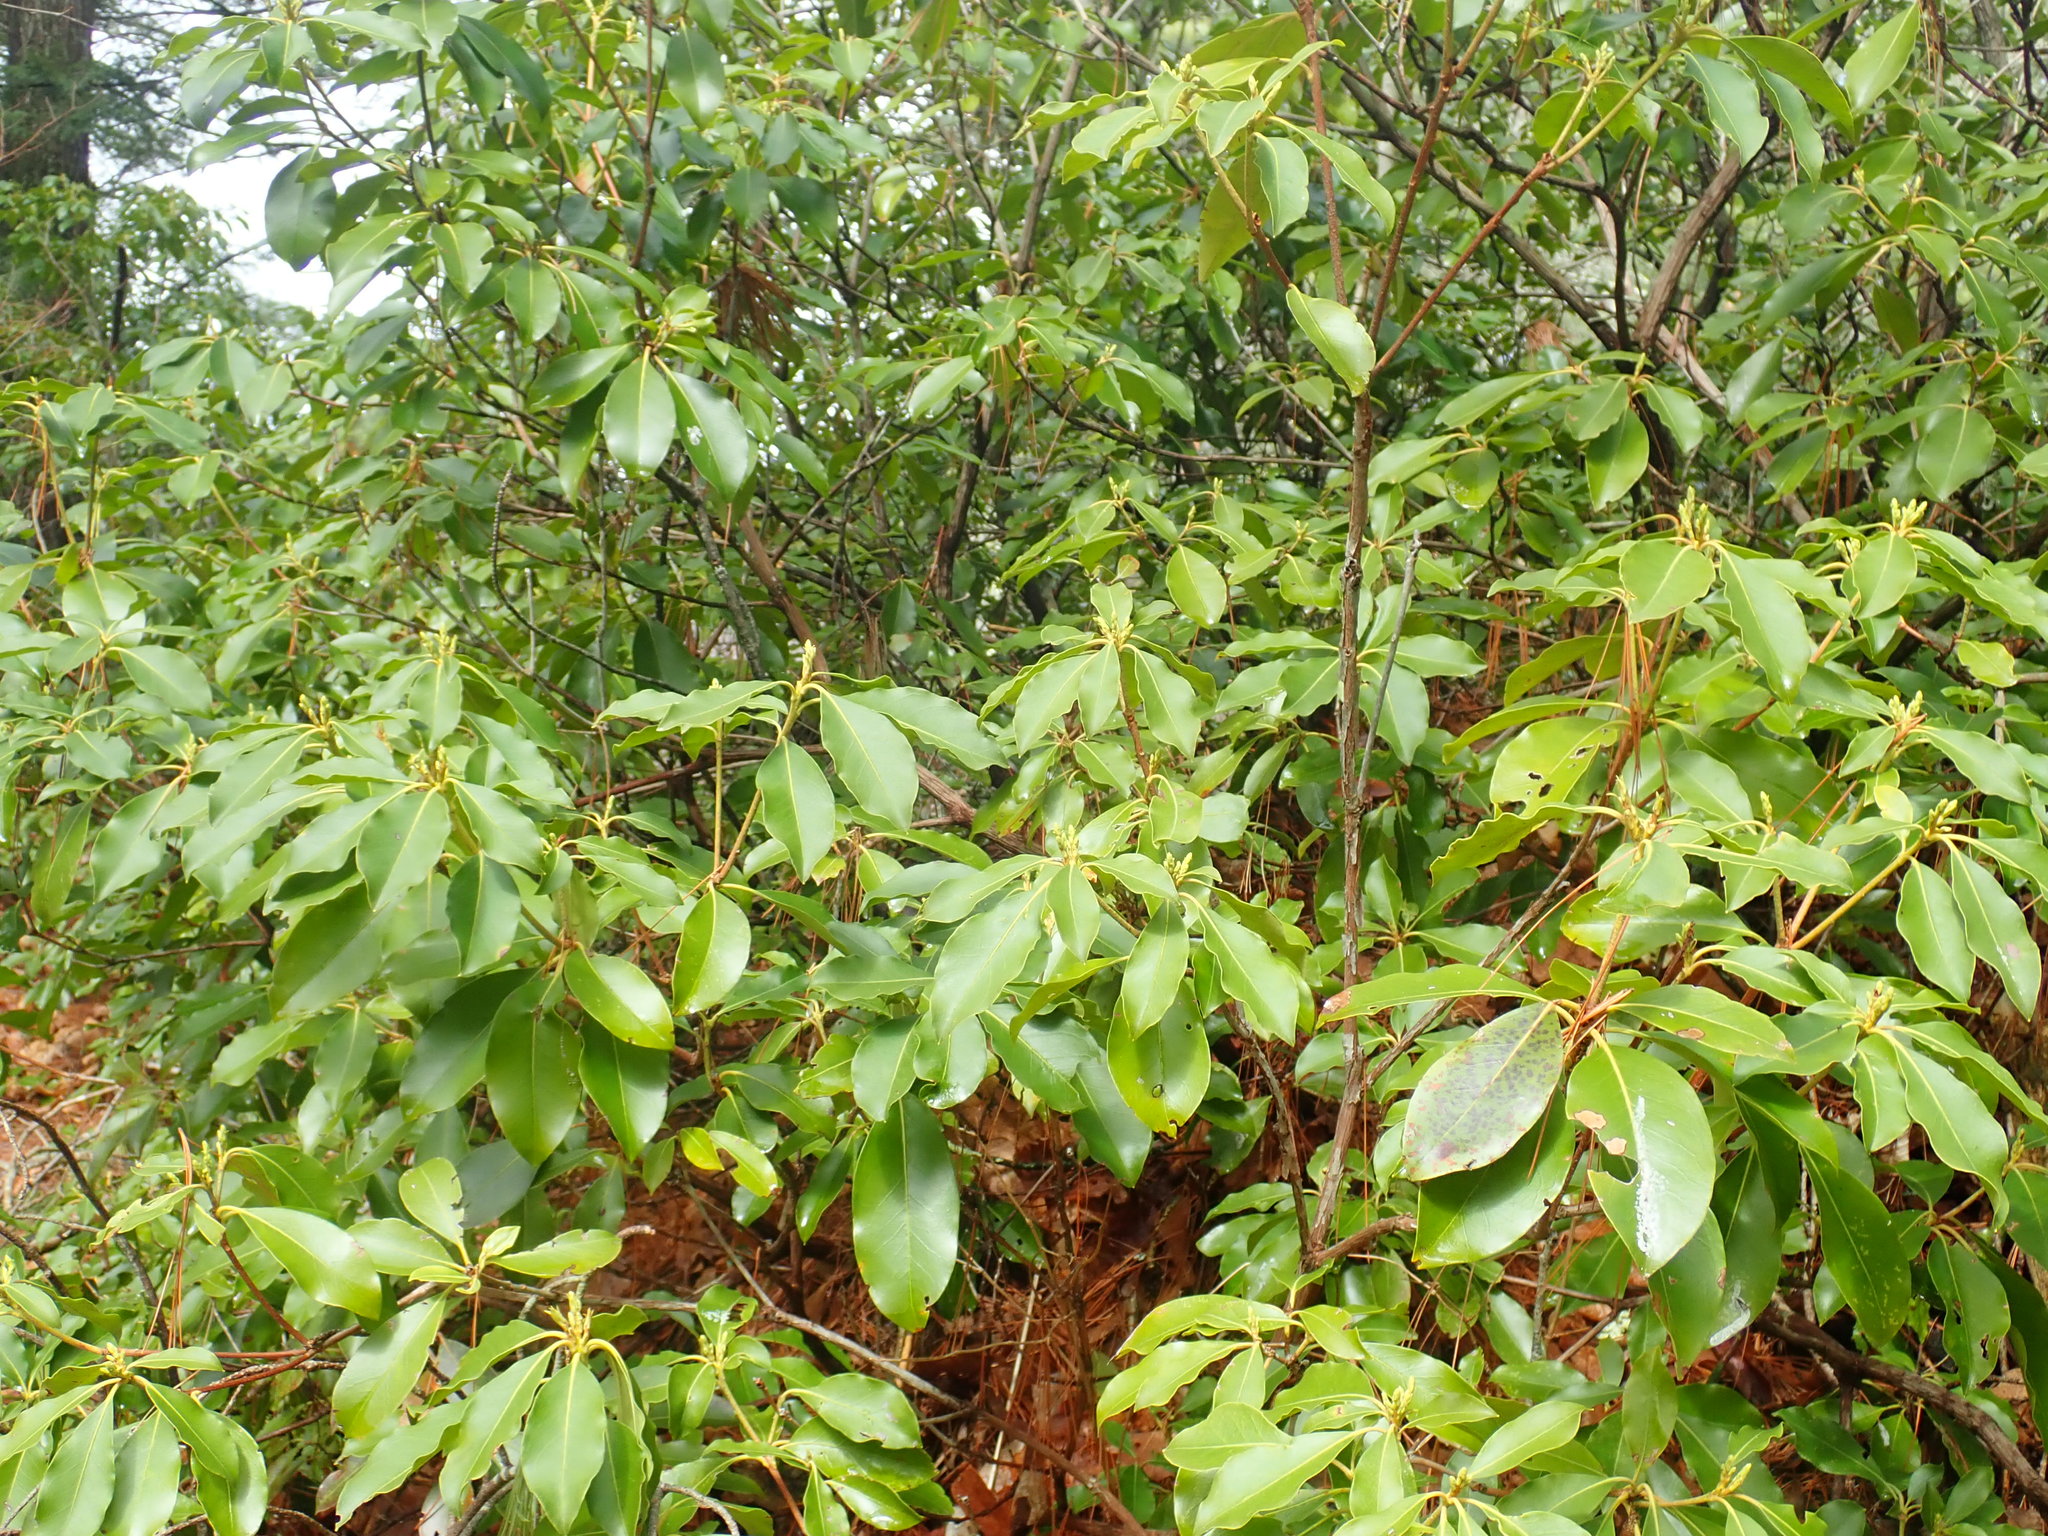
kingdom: Plantae
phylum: Tracheophyta
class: Magnoliopsida
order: Ericales
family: Ericaceae
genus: Kalmia
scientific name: Kalmia latifolia
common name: Mountain-laurel
